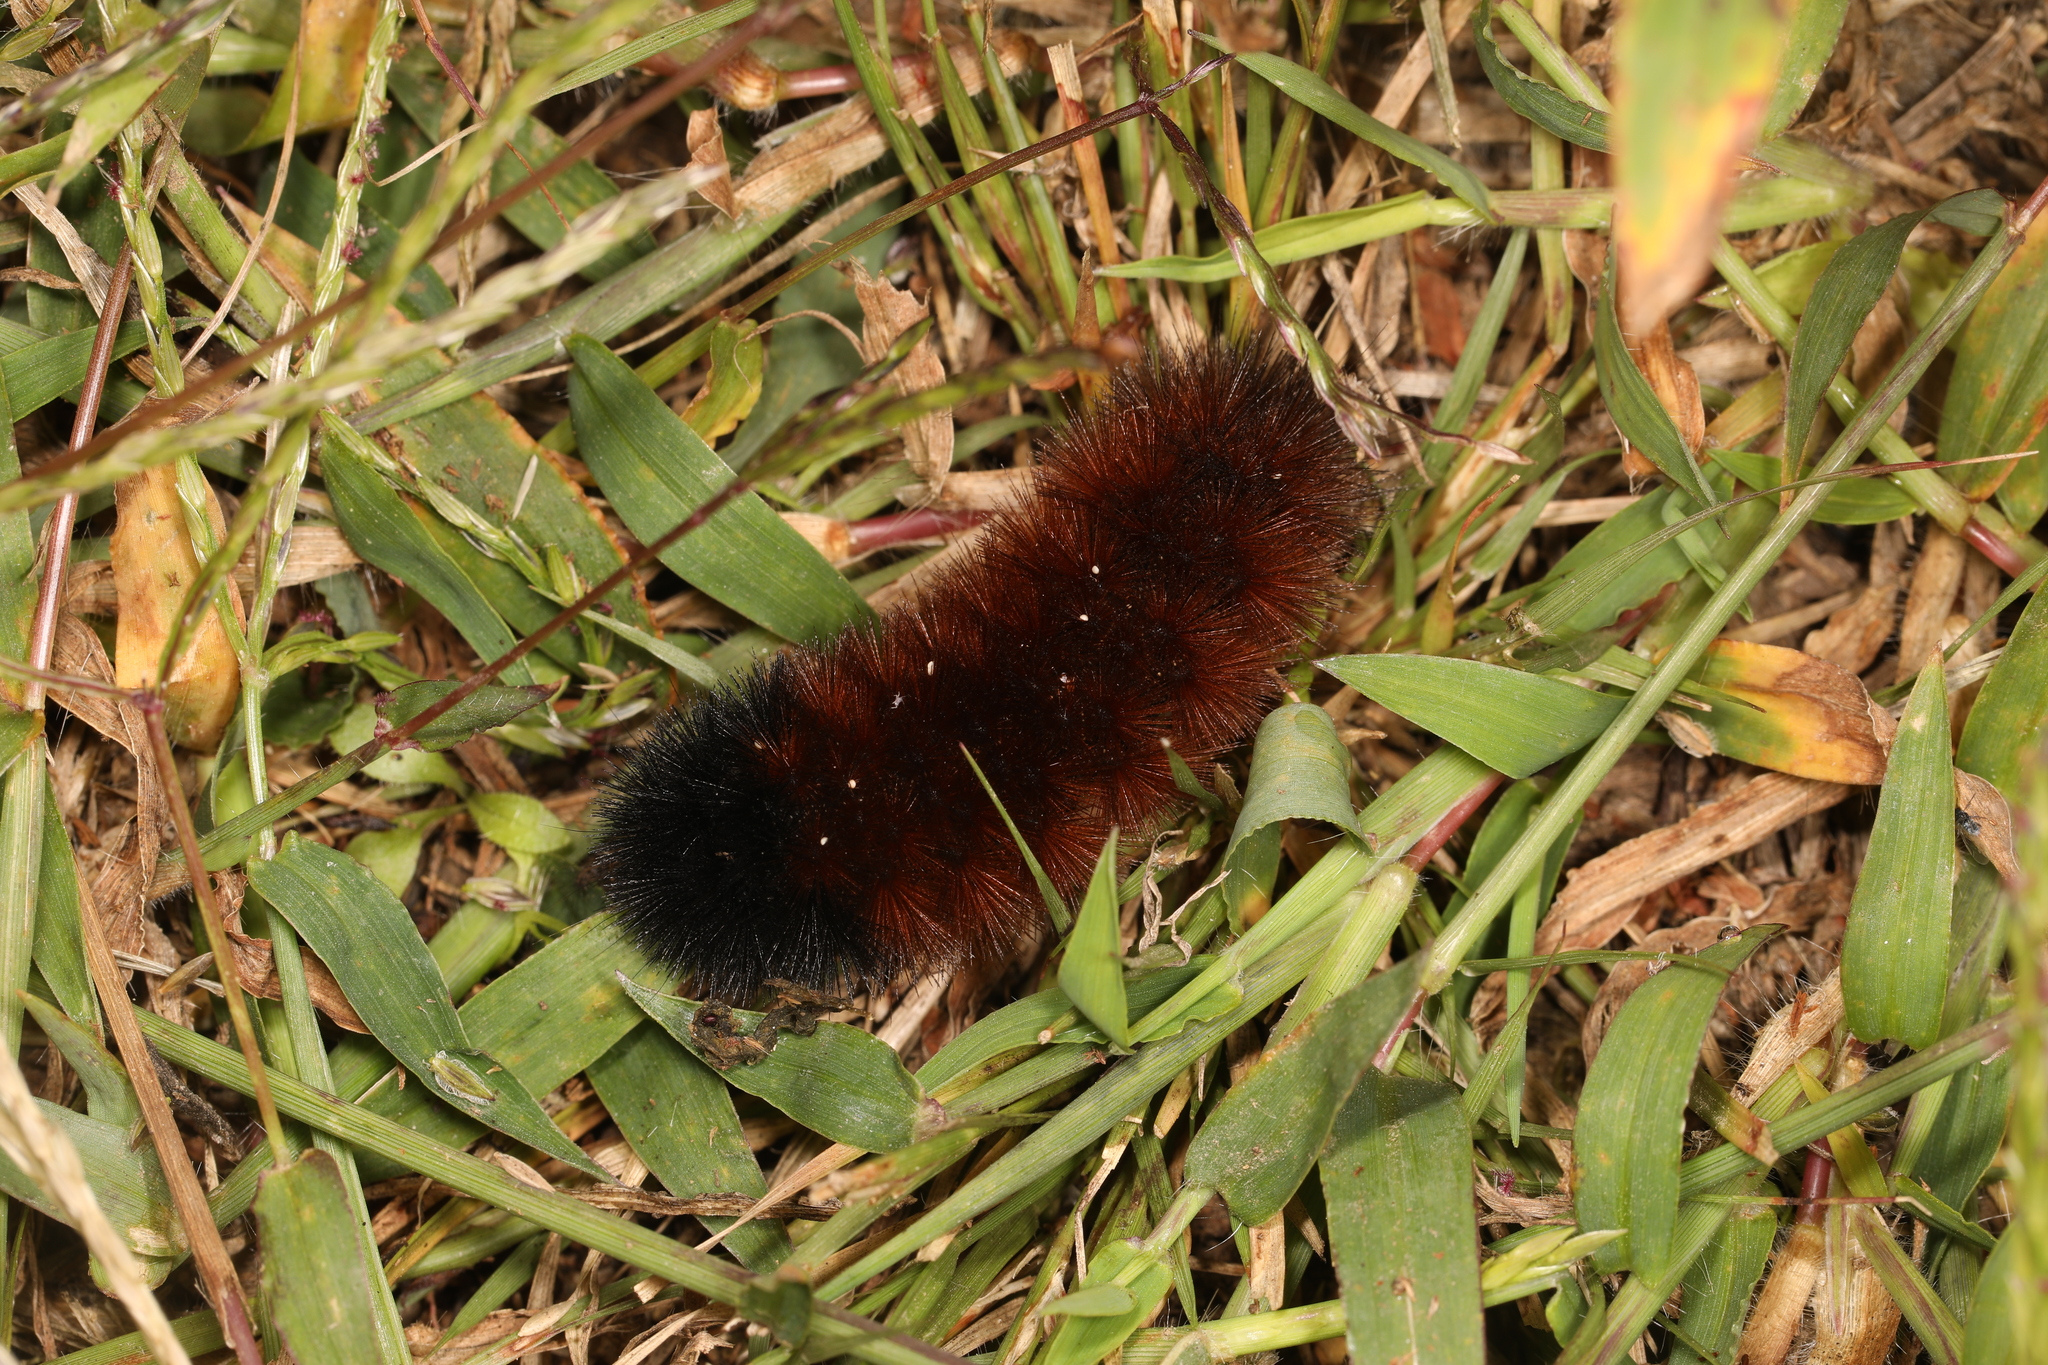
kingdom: Animalia
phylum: Arthropoda
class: Insecta
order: Lepidoptera
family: Erebidae
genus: Pyrrharctia
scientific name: Pyrrharctia isabella
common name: Isabella tiger moth
